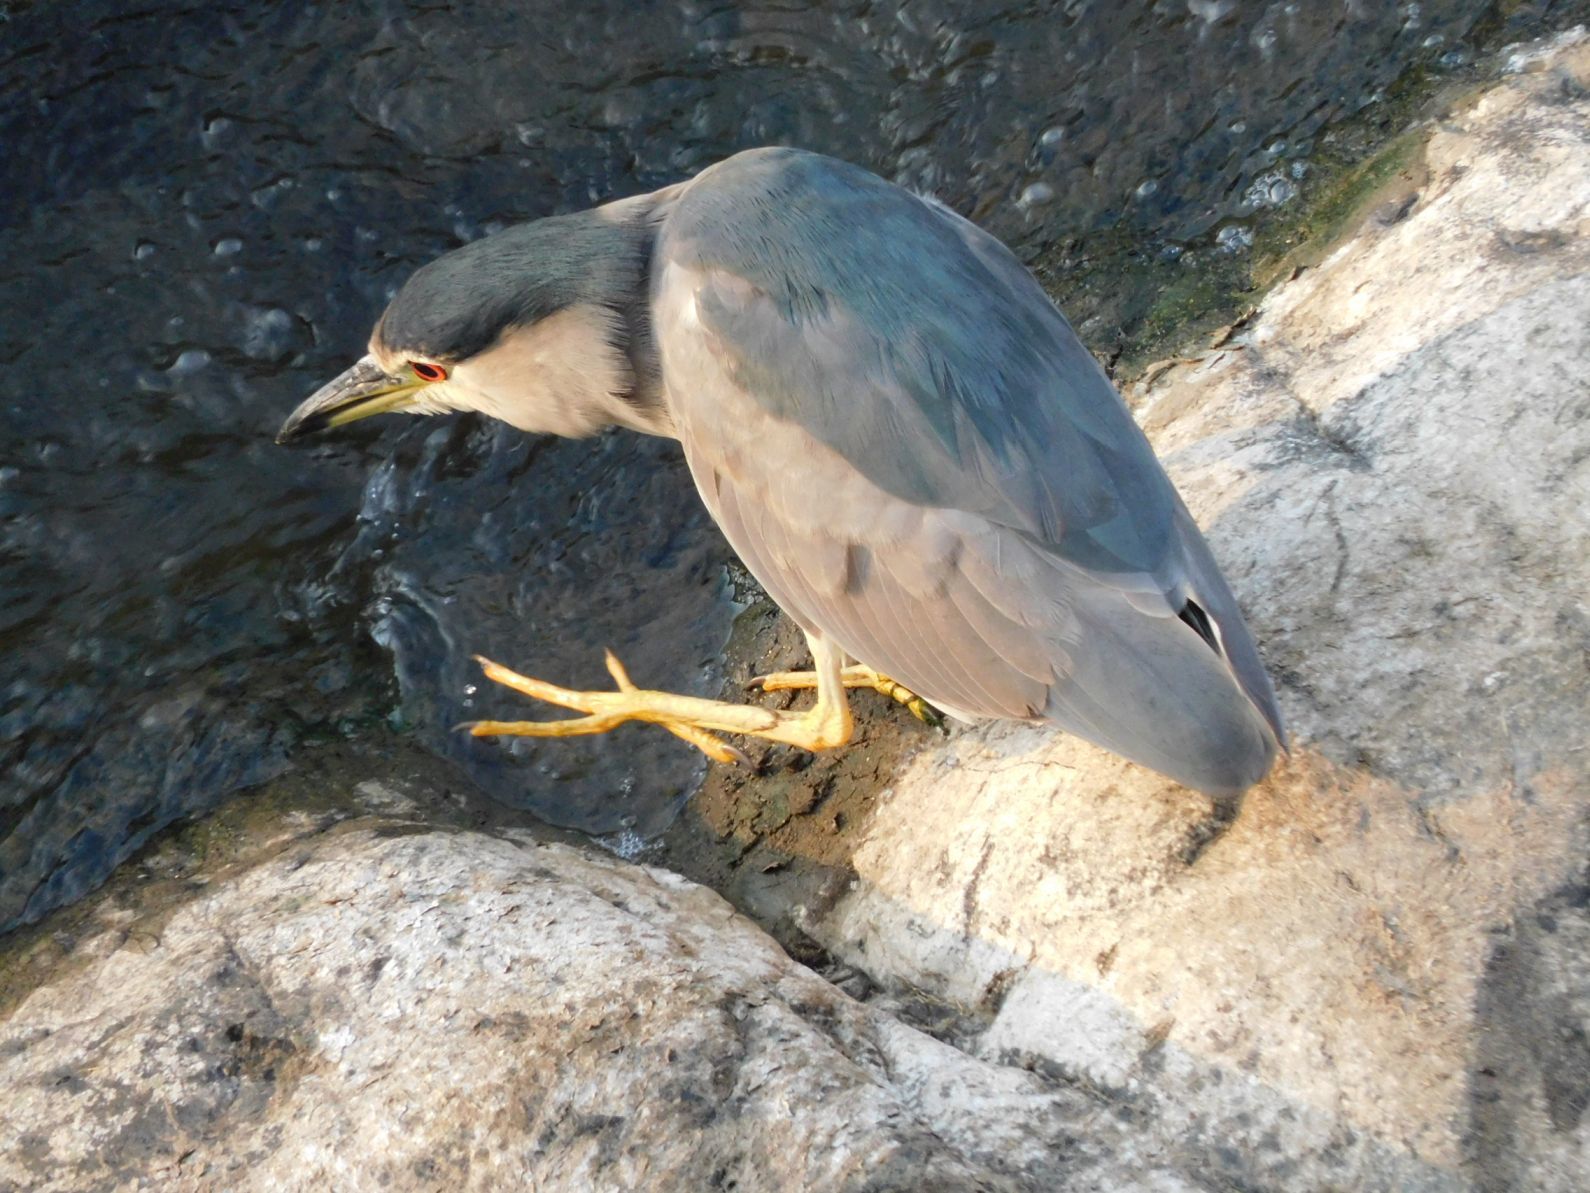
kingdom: Animalia
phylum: Chordata
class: Aves
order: Pelecaniformes
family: Ardeidae
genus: Nycticorax
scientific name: Nycticorax nycticorax
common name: Black-crowned night heron
